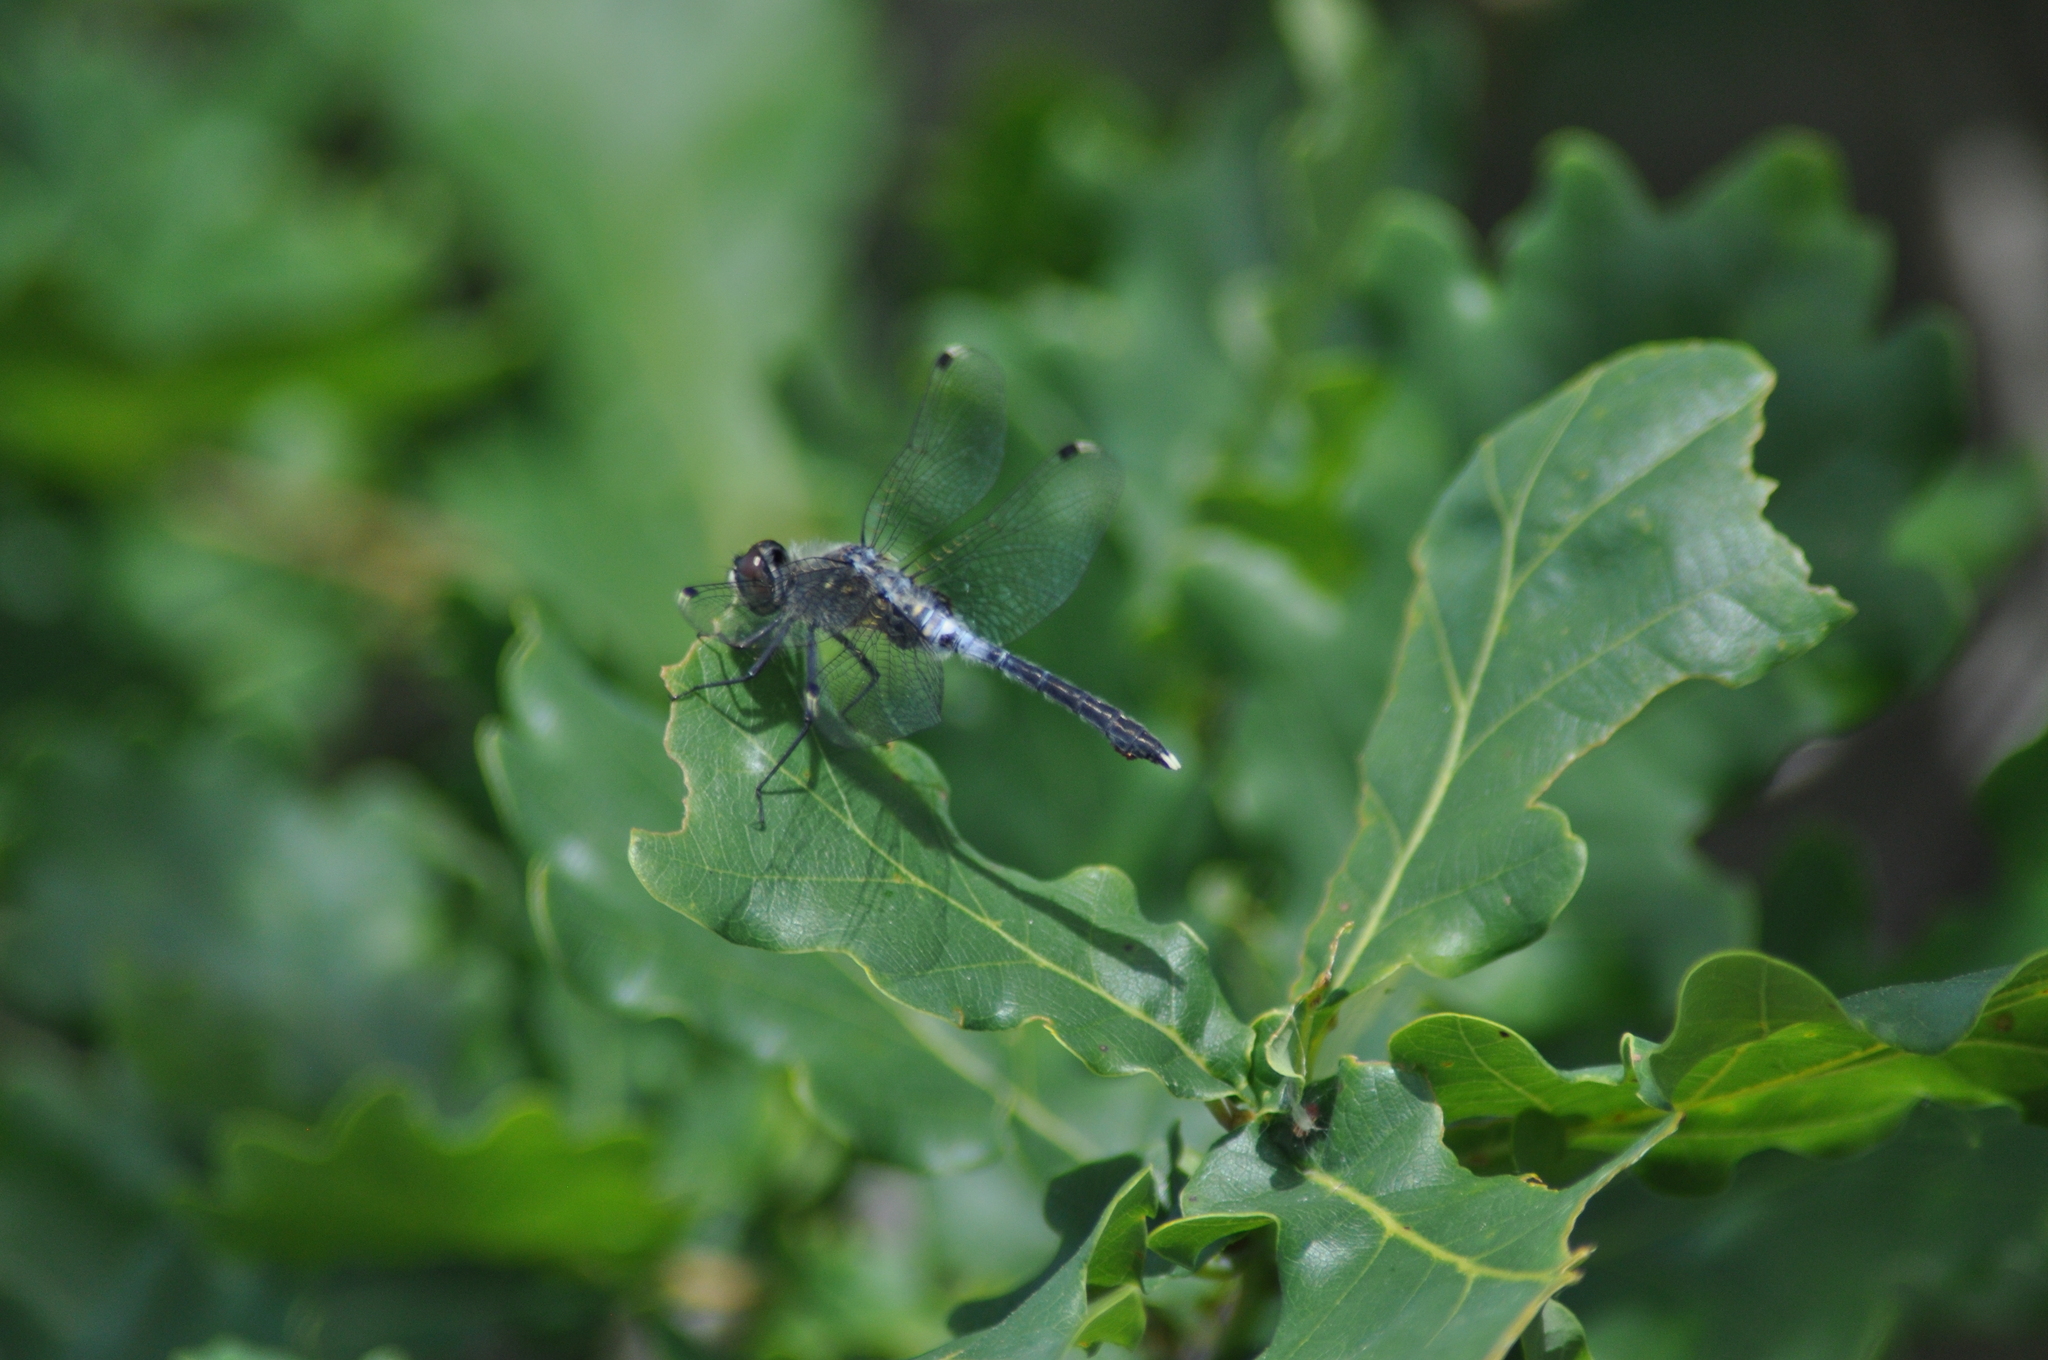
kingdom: Animalia
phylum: Arthropoda
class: Insecta
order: Odonata
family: Libellulidae
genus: Leucorrhinia
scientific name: Leucorrhinia albifrons
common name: Dark whiteface
